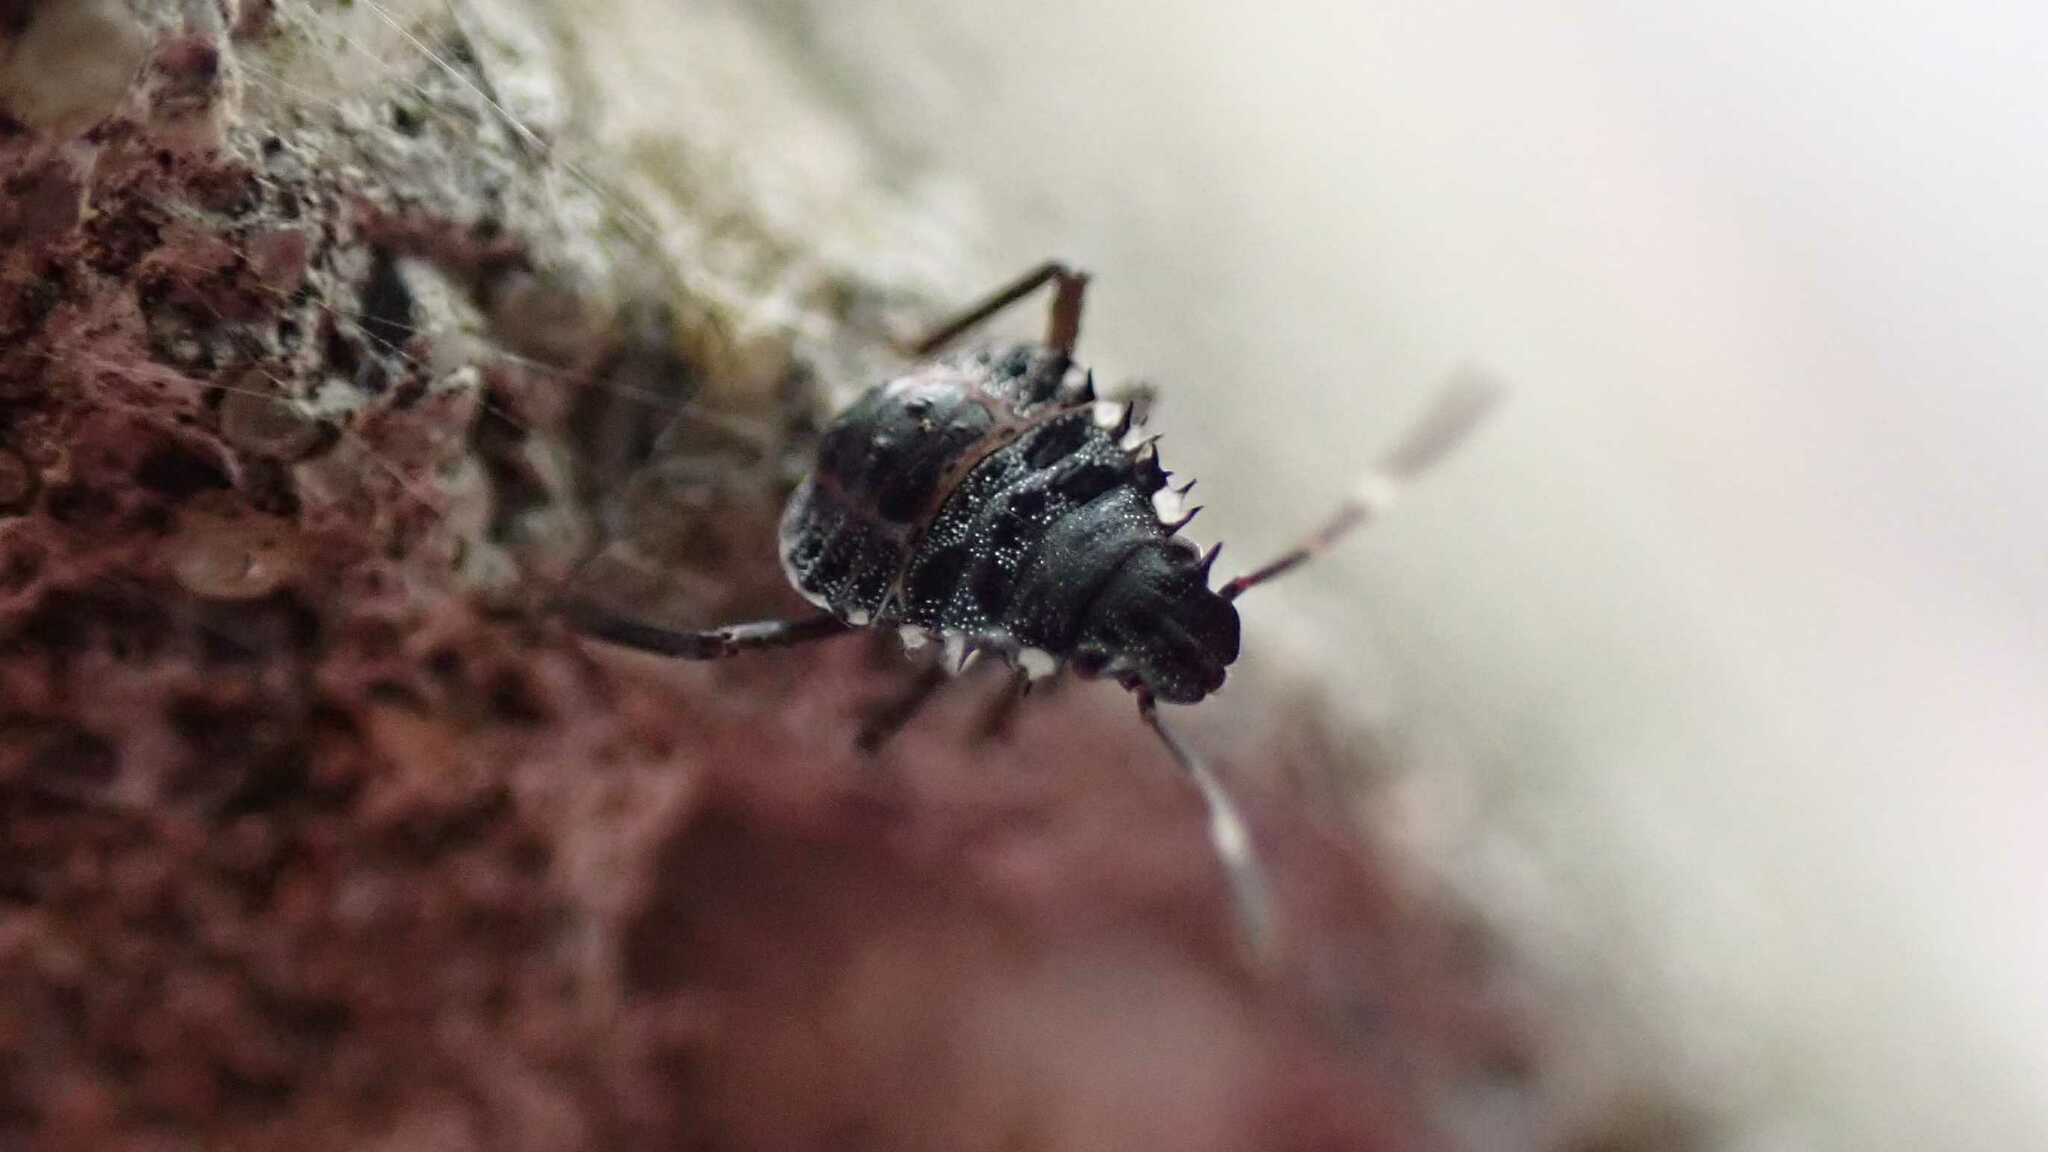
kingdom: Animalia
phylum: Arthropoda
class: Insecta
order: Hemiptera
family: Pentatomidae
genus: Halyomorpha
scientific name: Halyomorpha halys
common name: Brown marmorated stink bug
